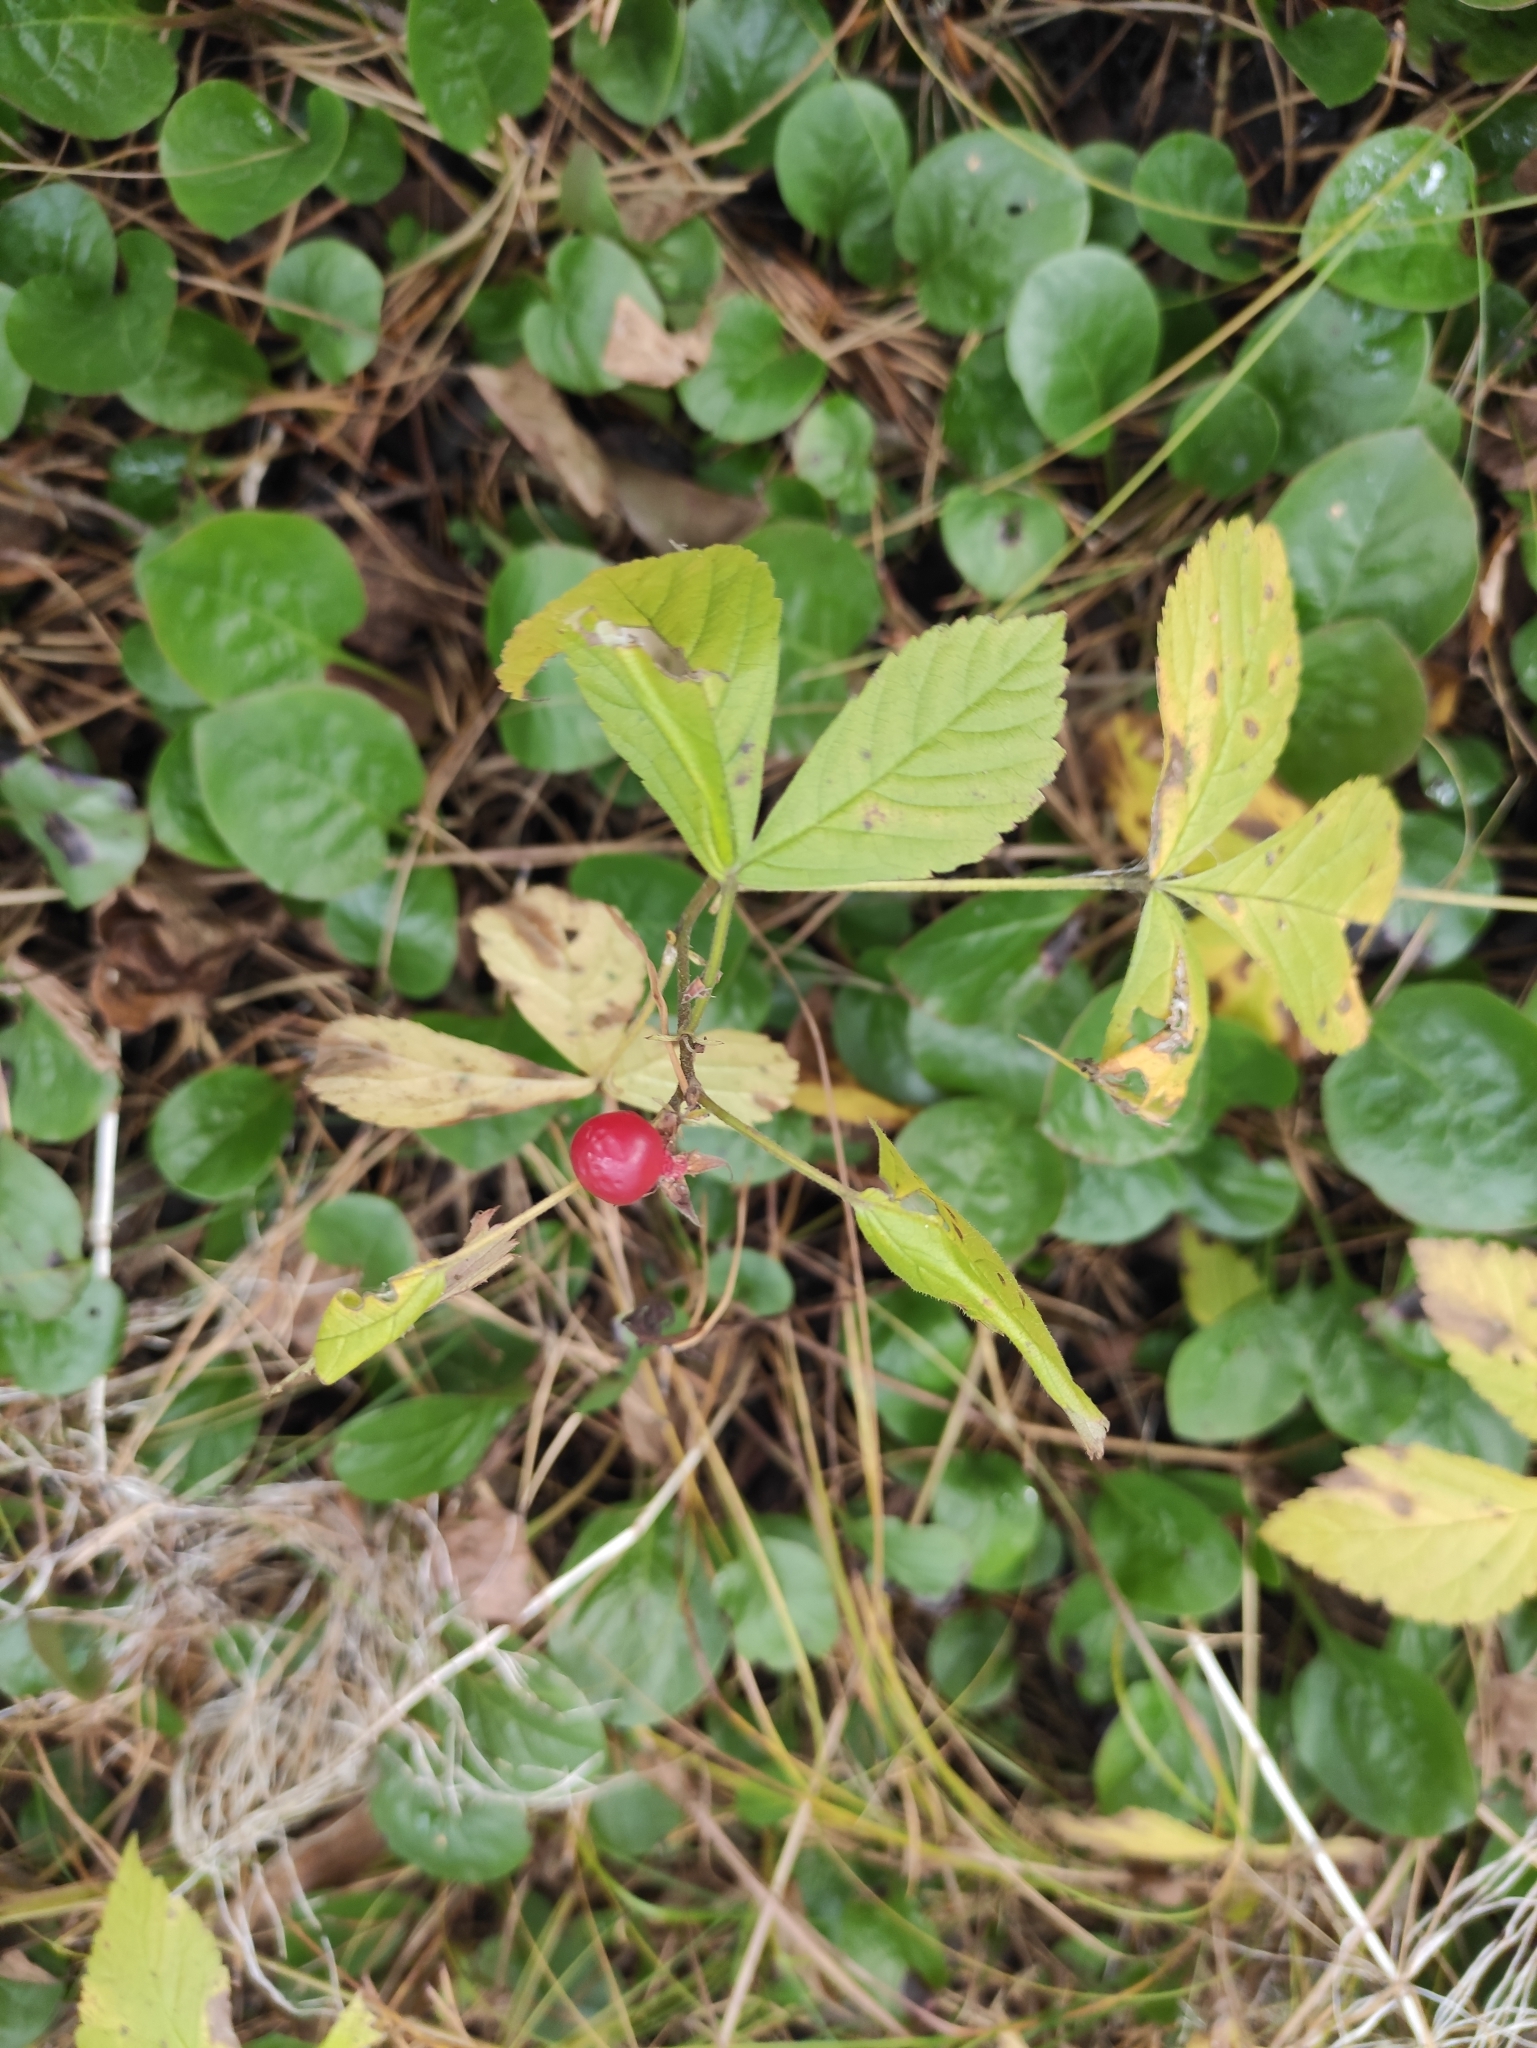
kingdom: Plantae
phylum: Tracheophyta
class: Magnoliopsida
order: Rosales
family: Rosaceae
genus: Rubus
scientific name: Rubus saxatilis
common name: Stone bramble
